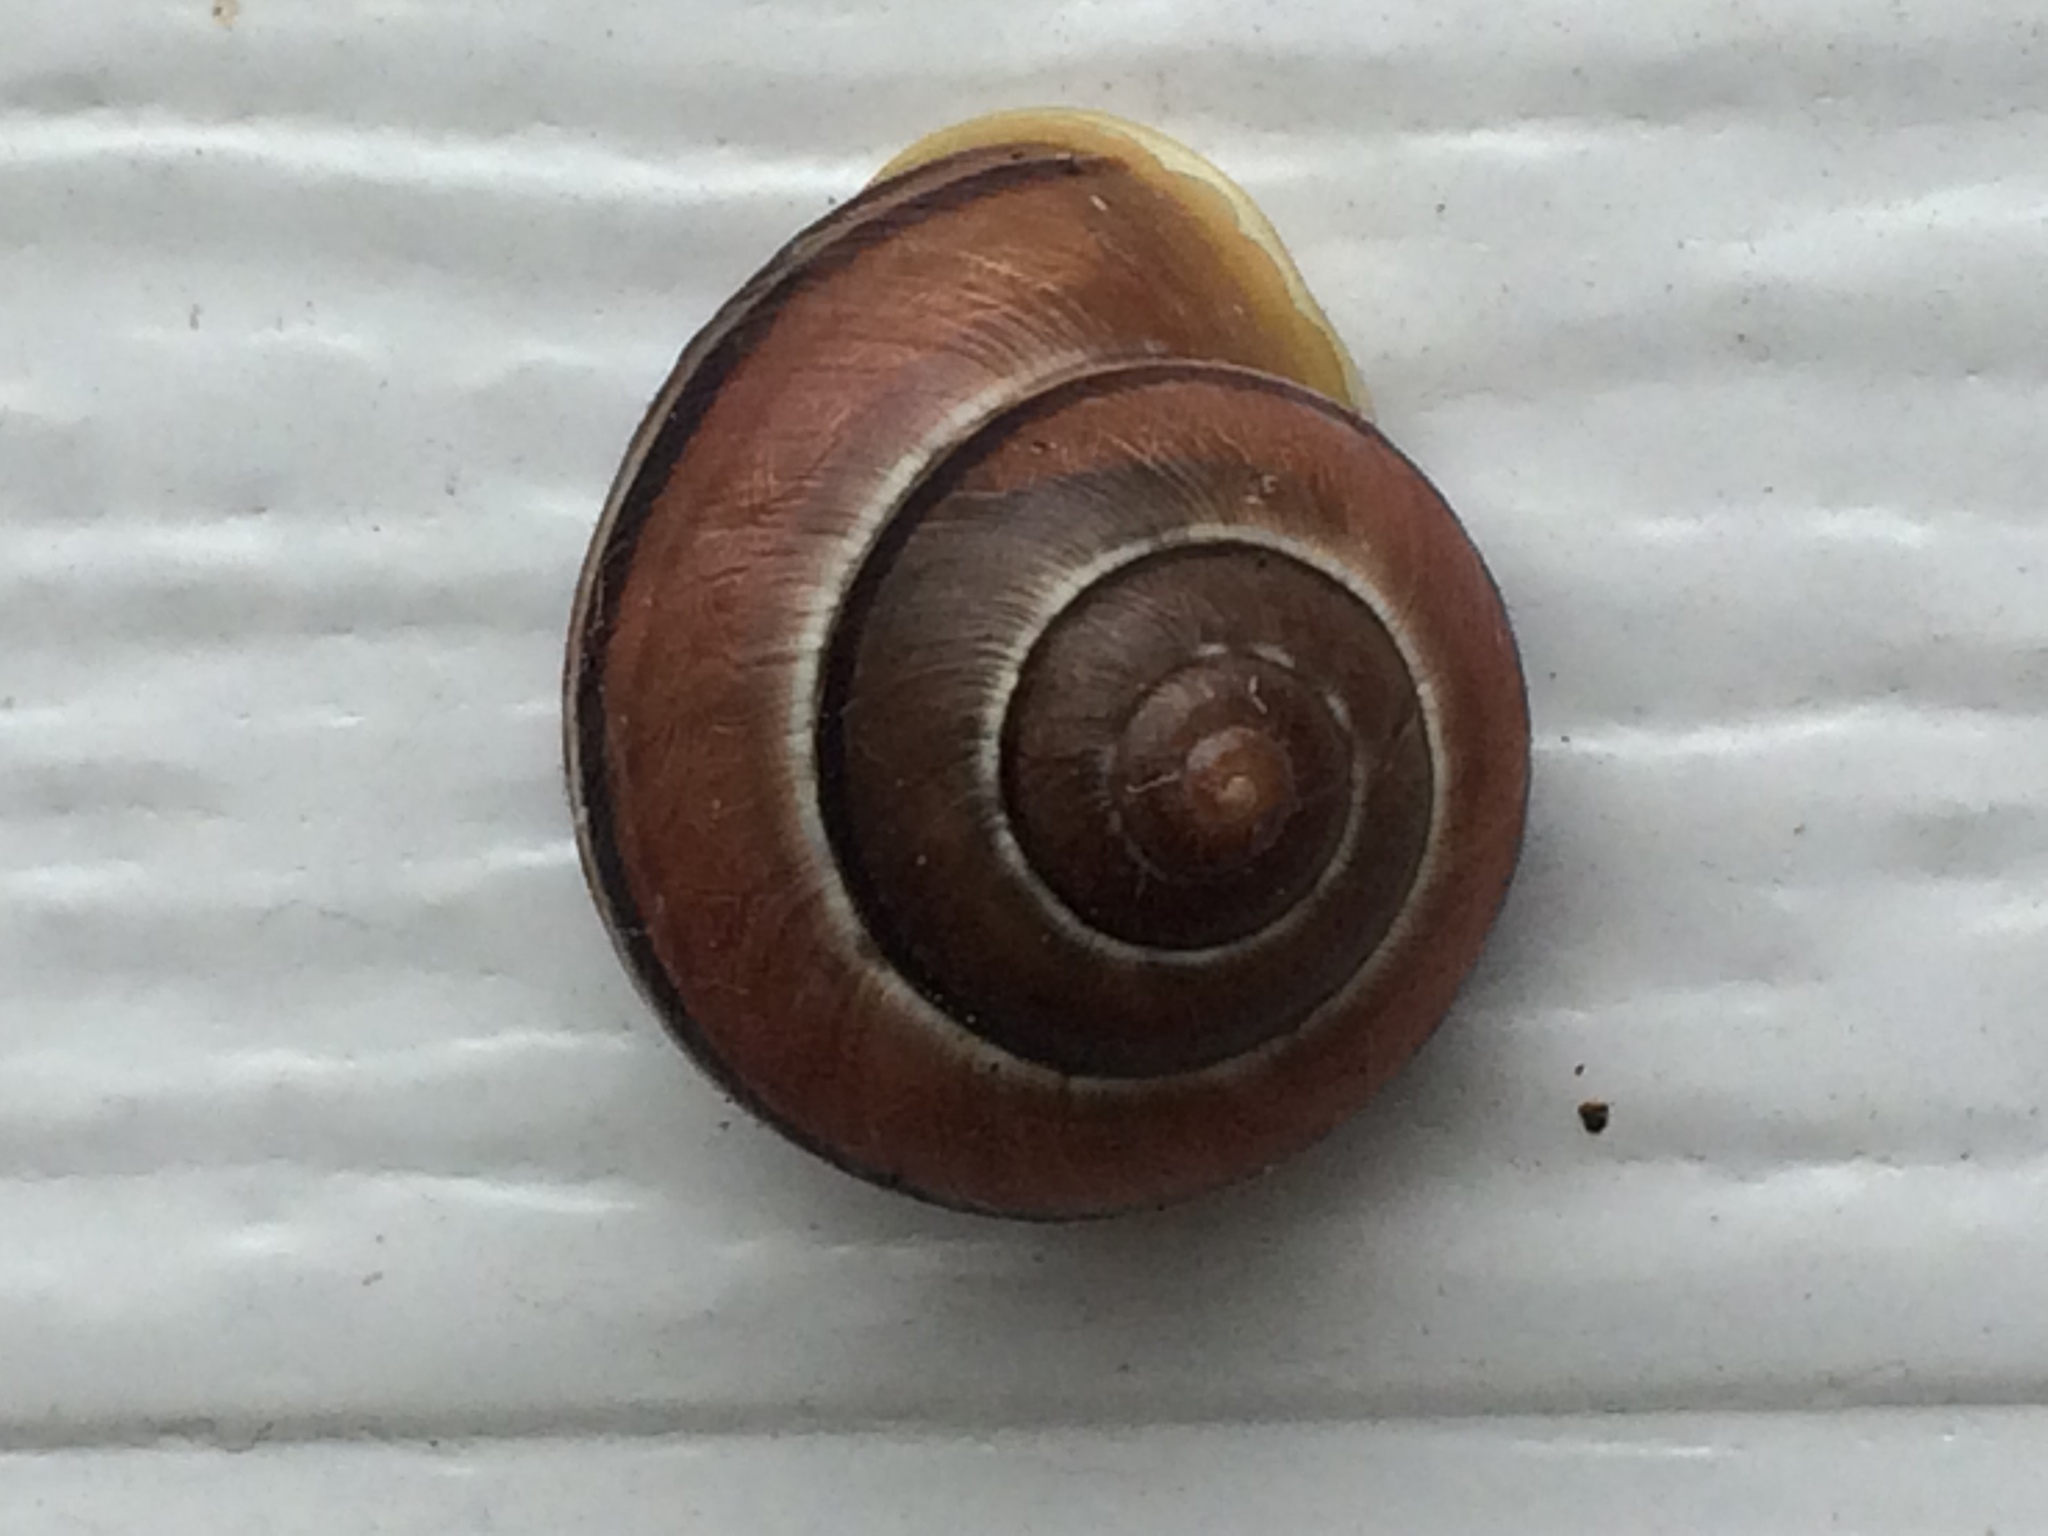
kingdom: Animalia
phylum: Mollusca
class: Gastropoda
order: Stylommatophora
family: Helicidae
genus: Cepaea
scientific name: Cepaea nemoralis
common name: Grovesnail
